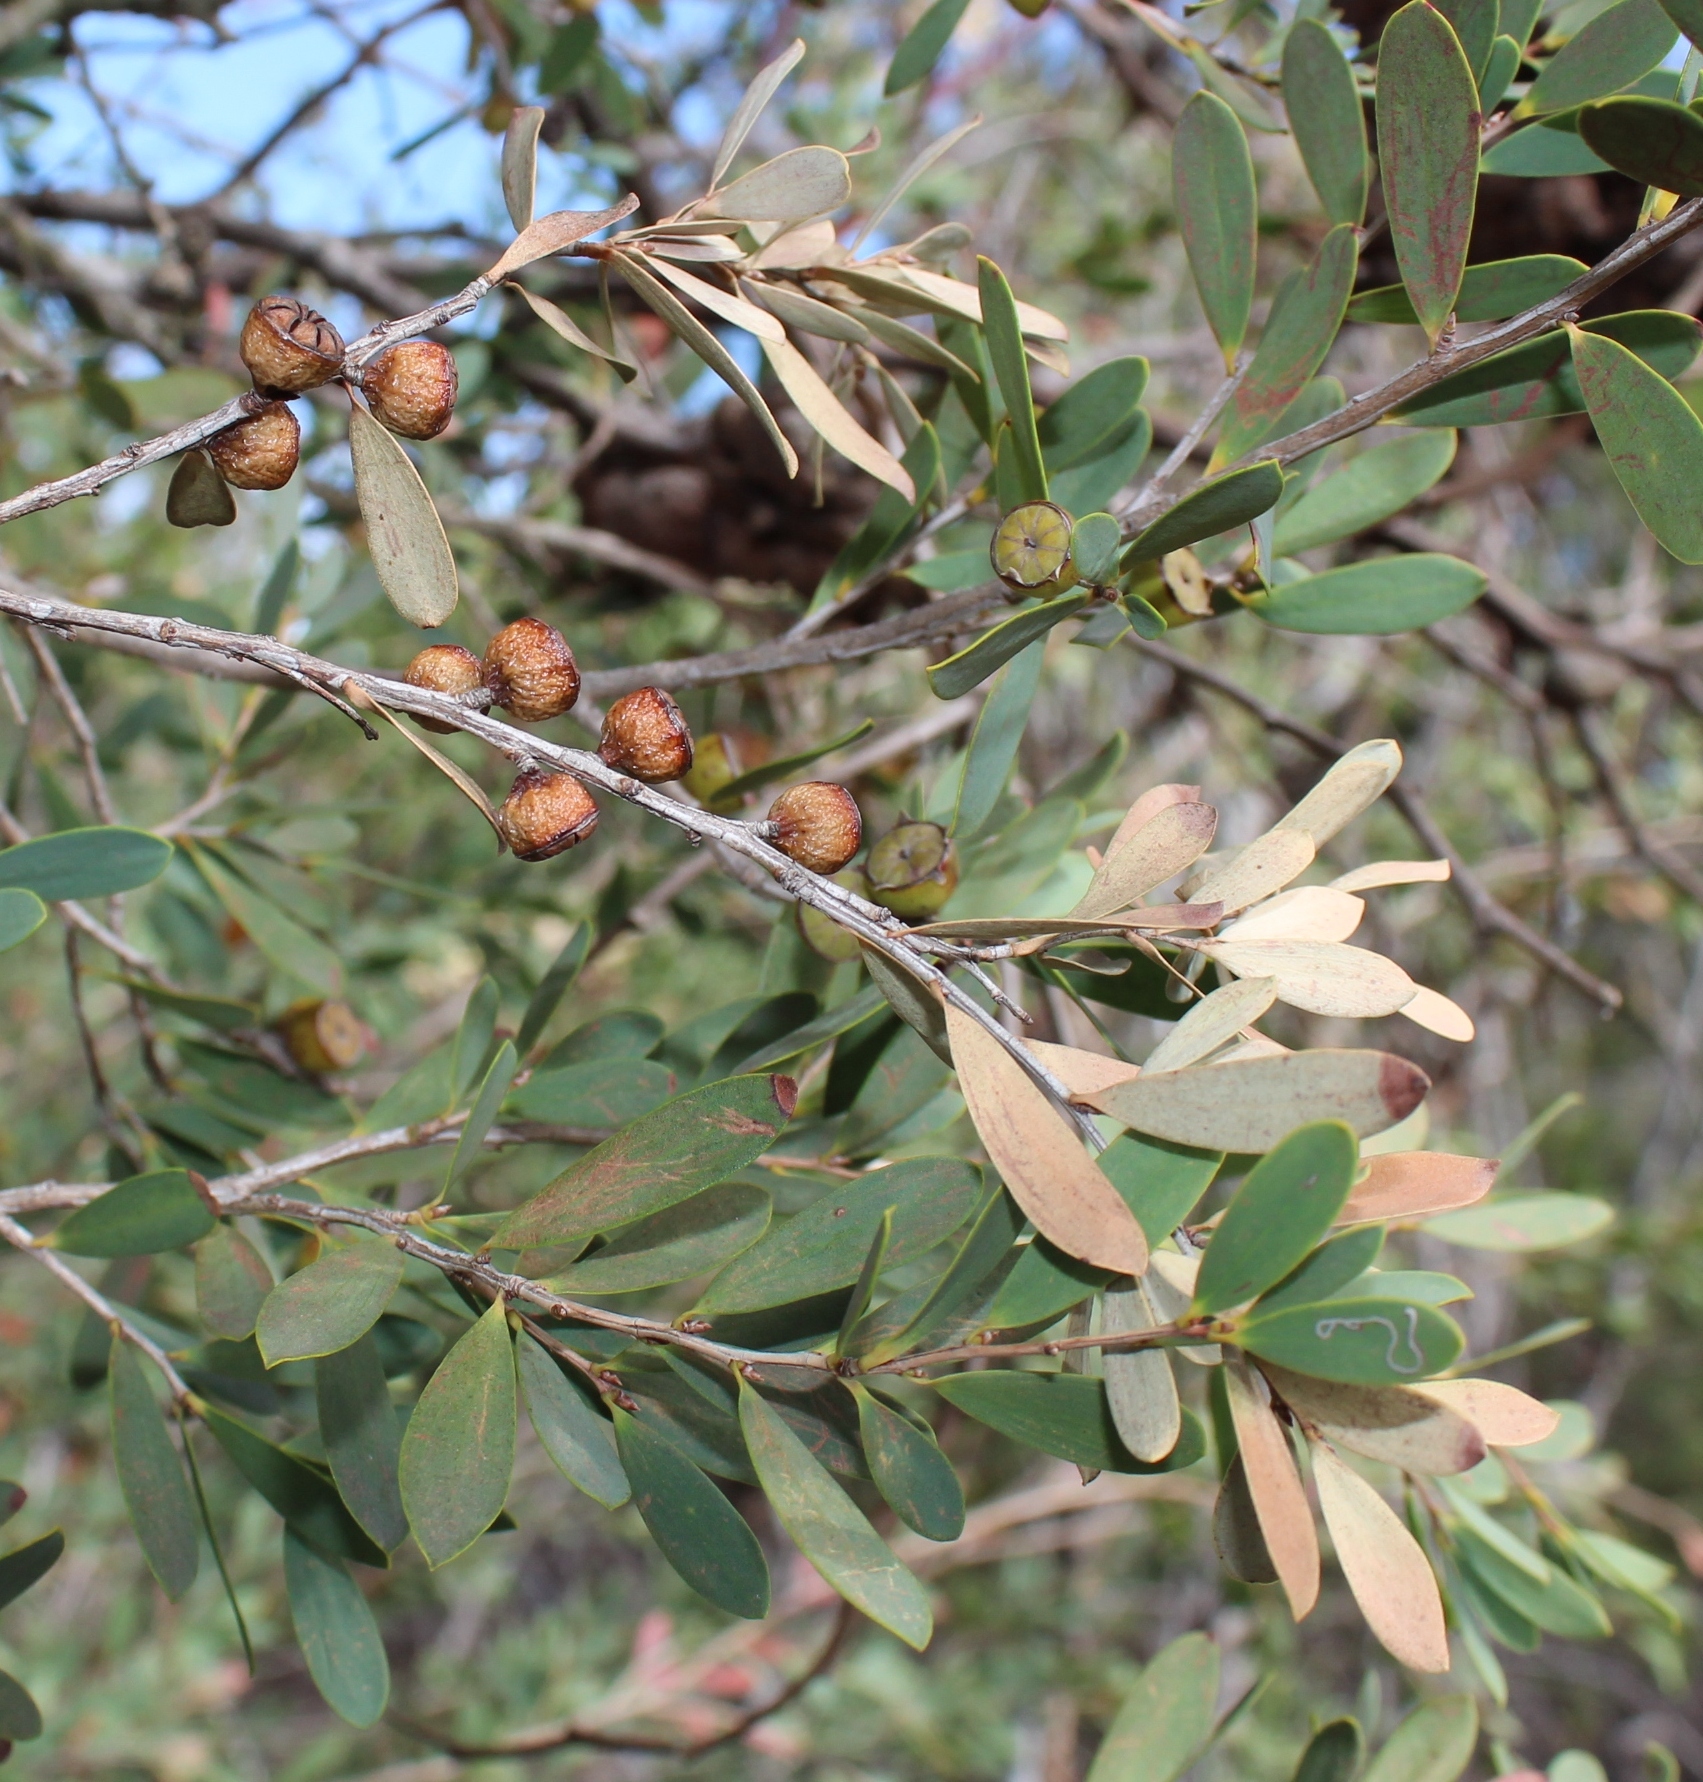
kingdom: Plantae
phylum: Tracheophyta
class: Magnoliopsida
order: Myrtales
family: Myrtaceae
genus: Leptospermum
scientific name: Leptospermum laevigatum
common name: Australian teatree
